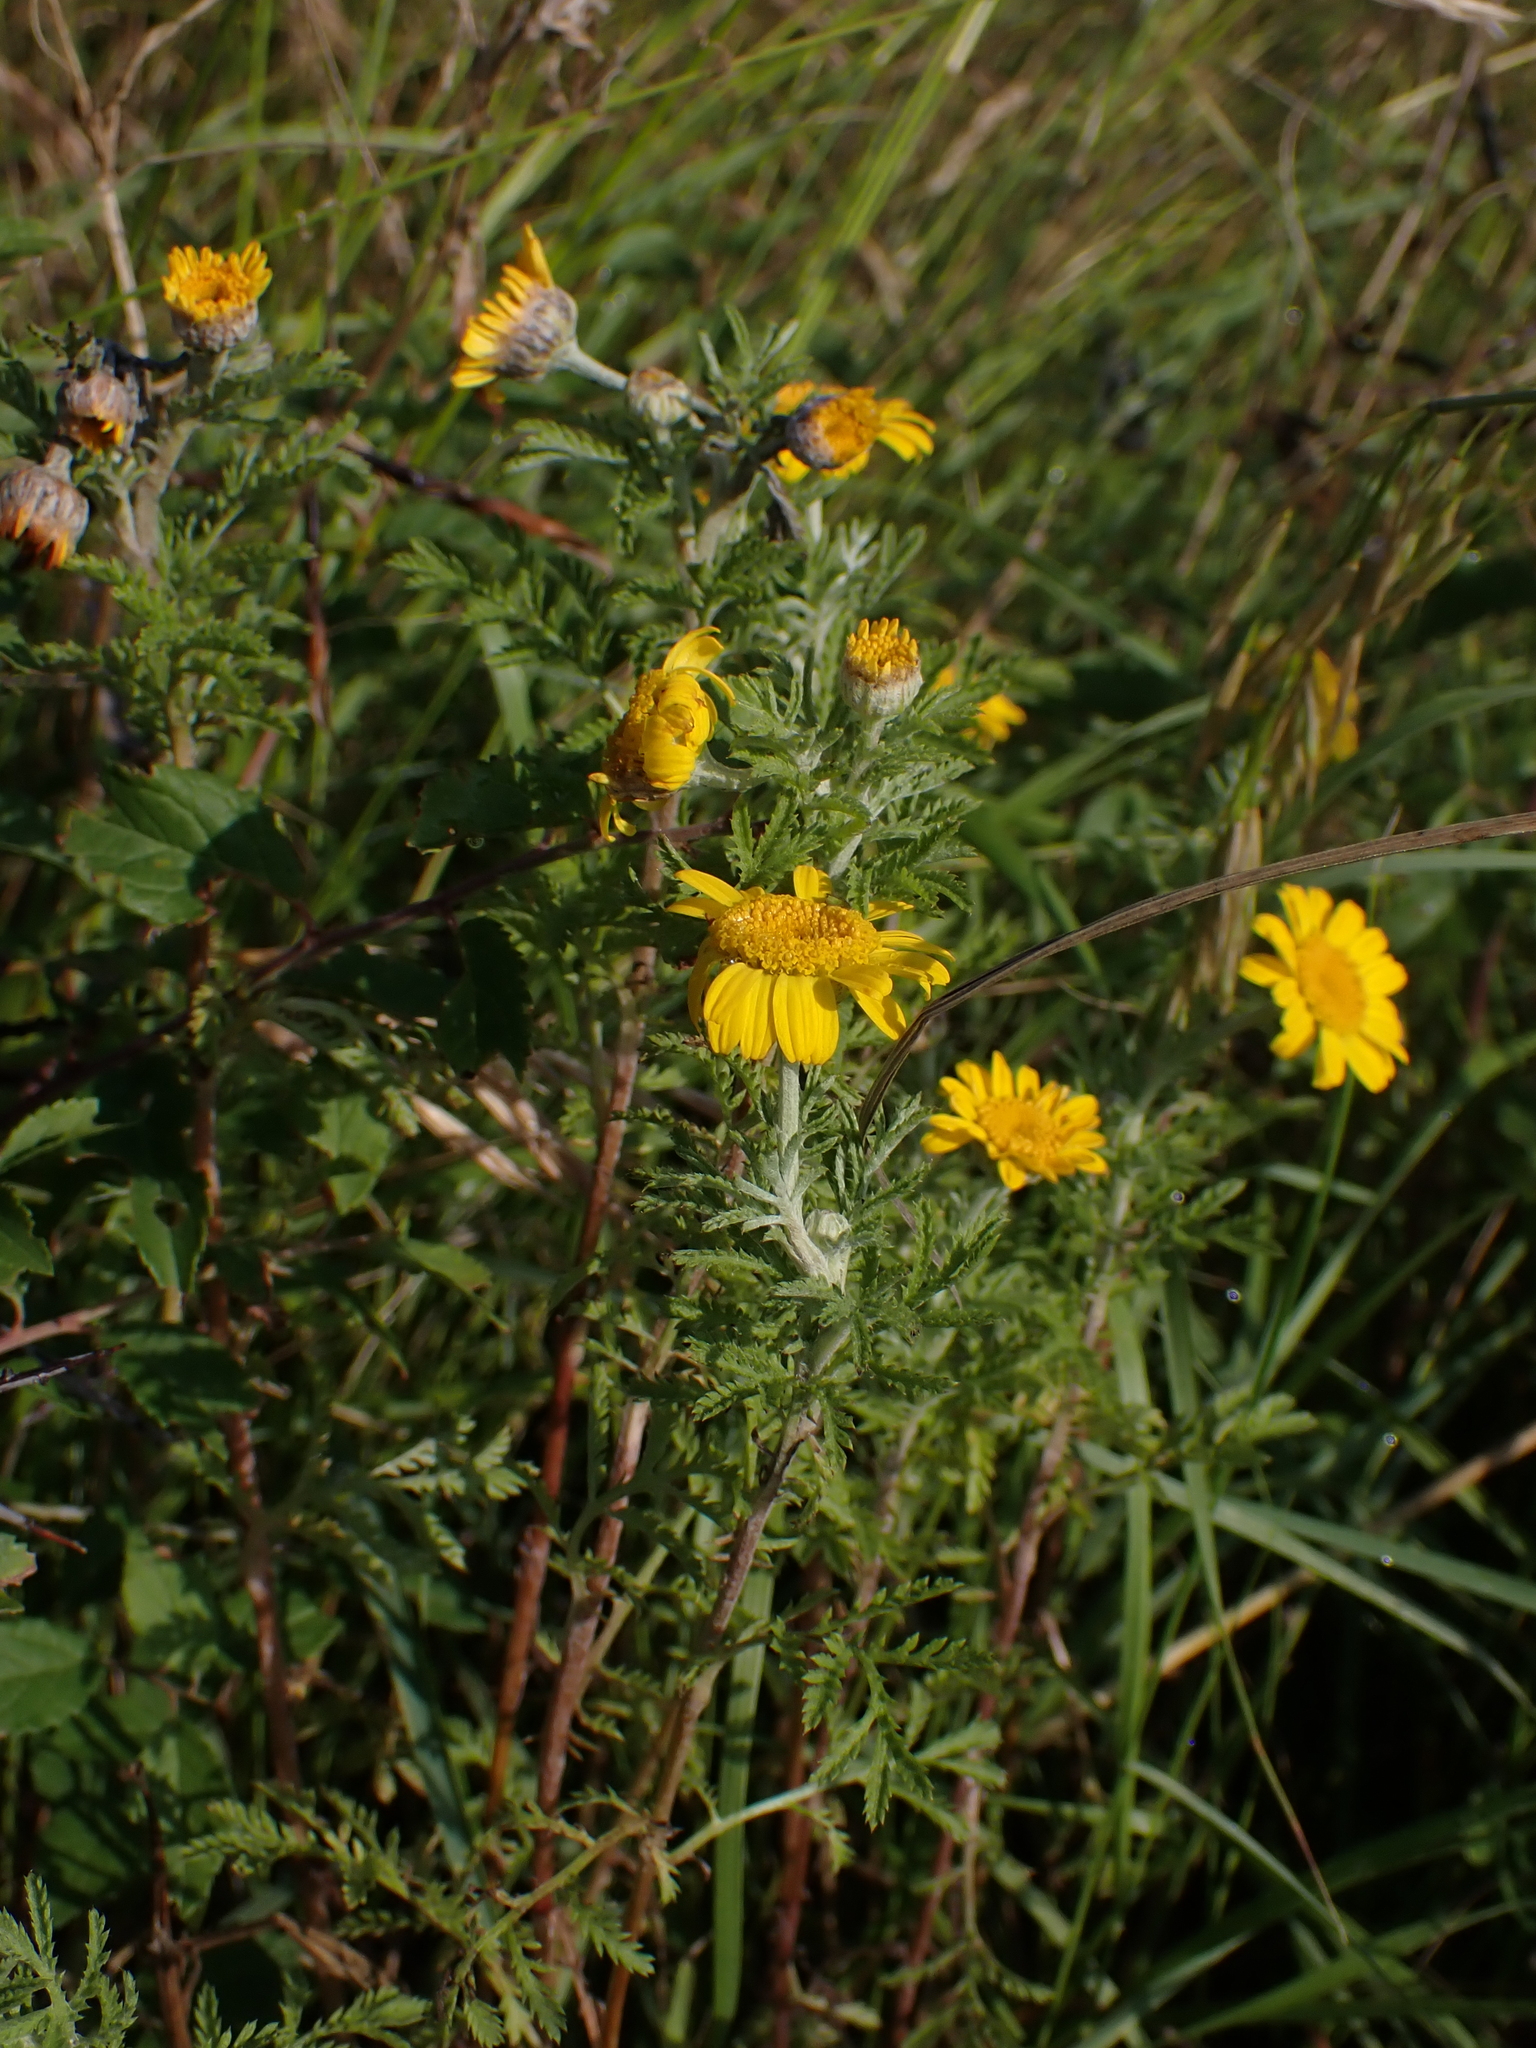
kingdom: Plantae
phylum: Tracheophyta
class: Magnoliopsida
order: Asterales
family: Asteraceae
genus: Cota
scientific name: Cota tinctoria
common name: Golden chamomile
